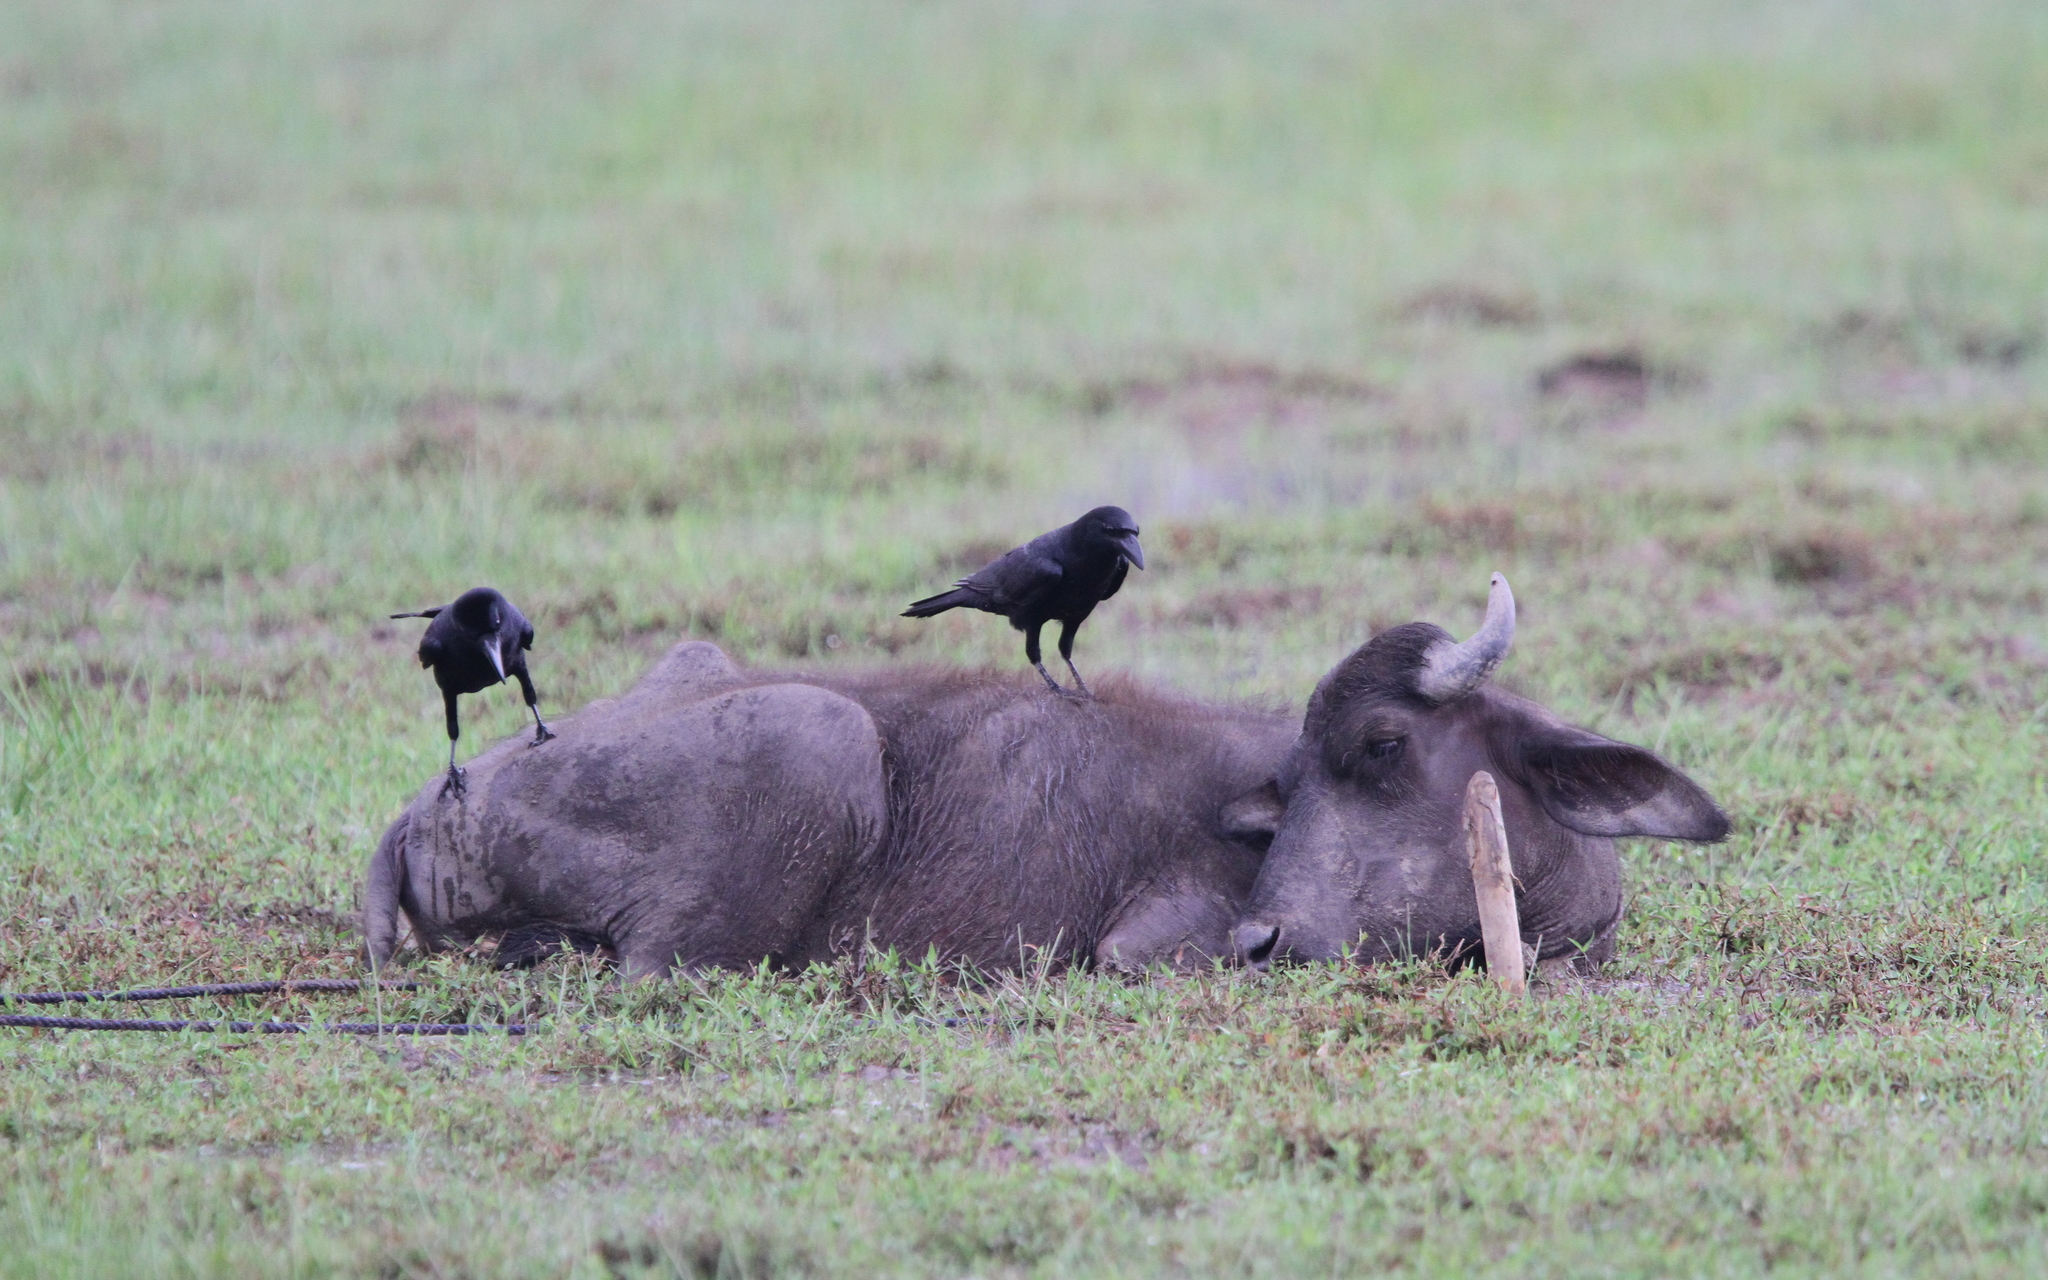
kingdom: Animalia
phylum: Chordata
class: Aves
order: Passeriformes
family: Corvidae
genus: Corvus
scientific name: Corvus macrorhynchos
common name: Large-billed crow
